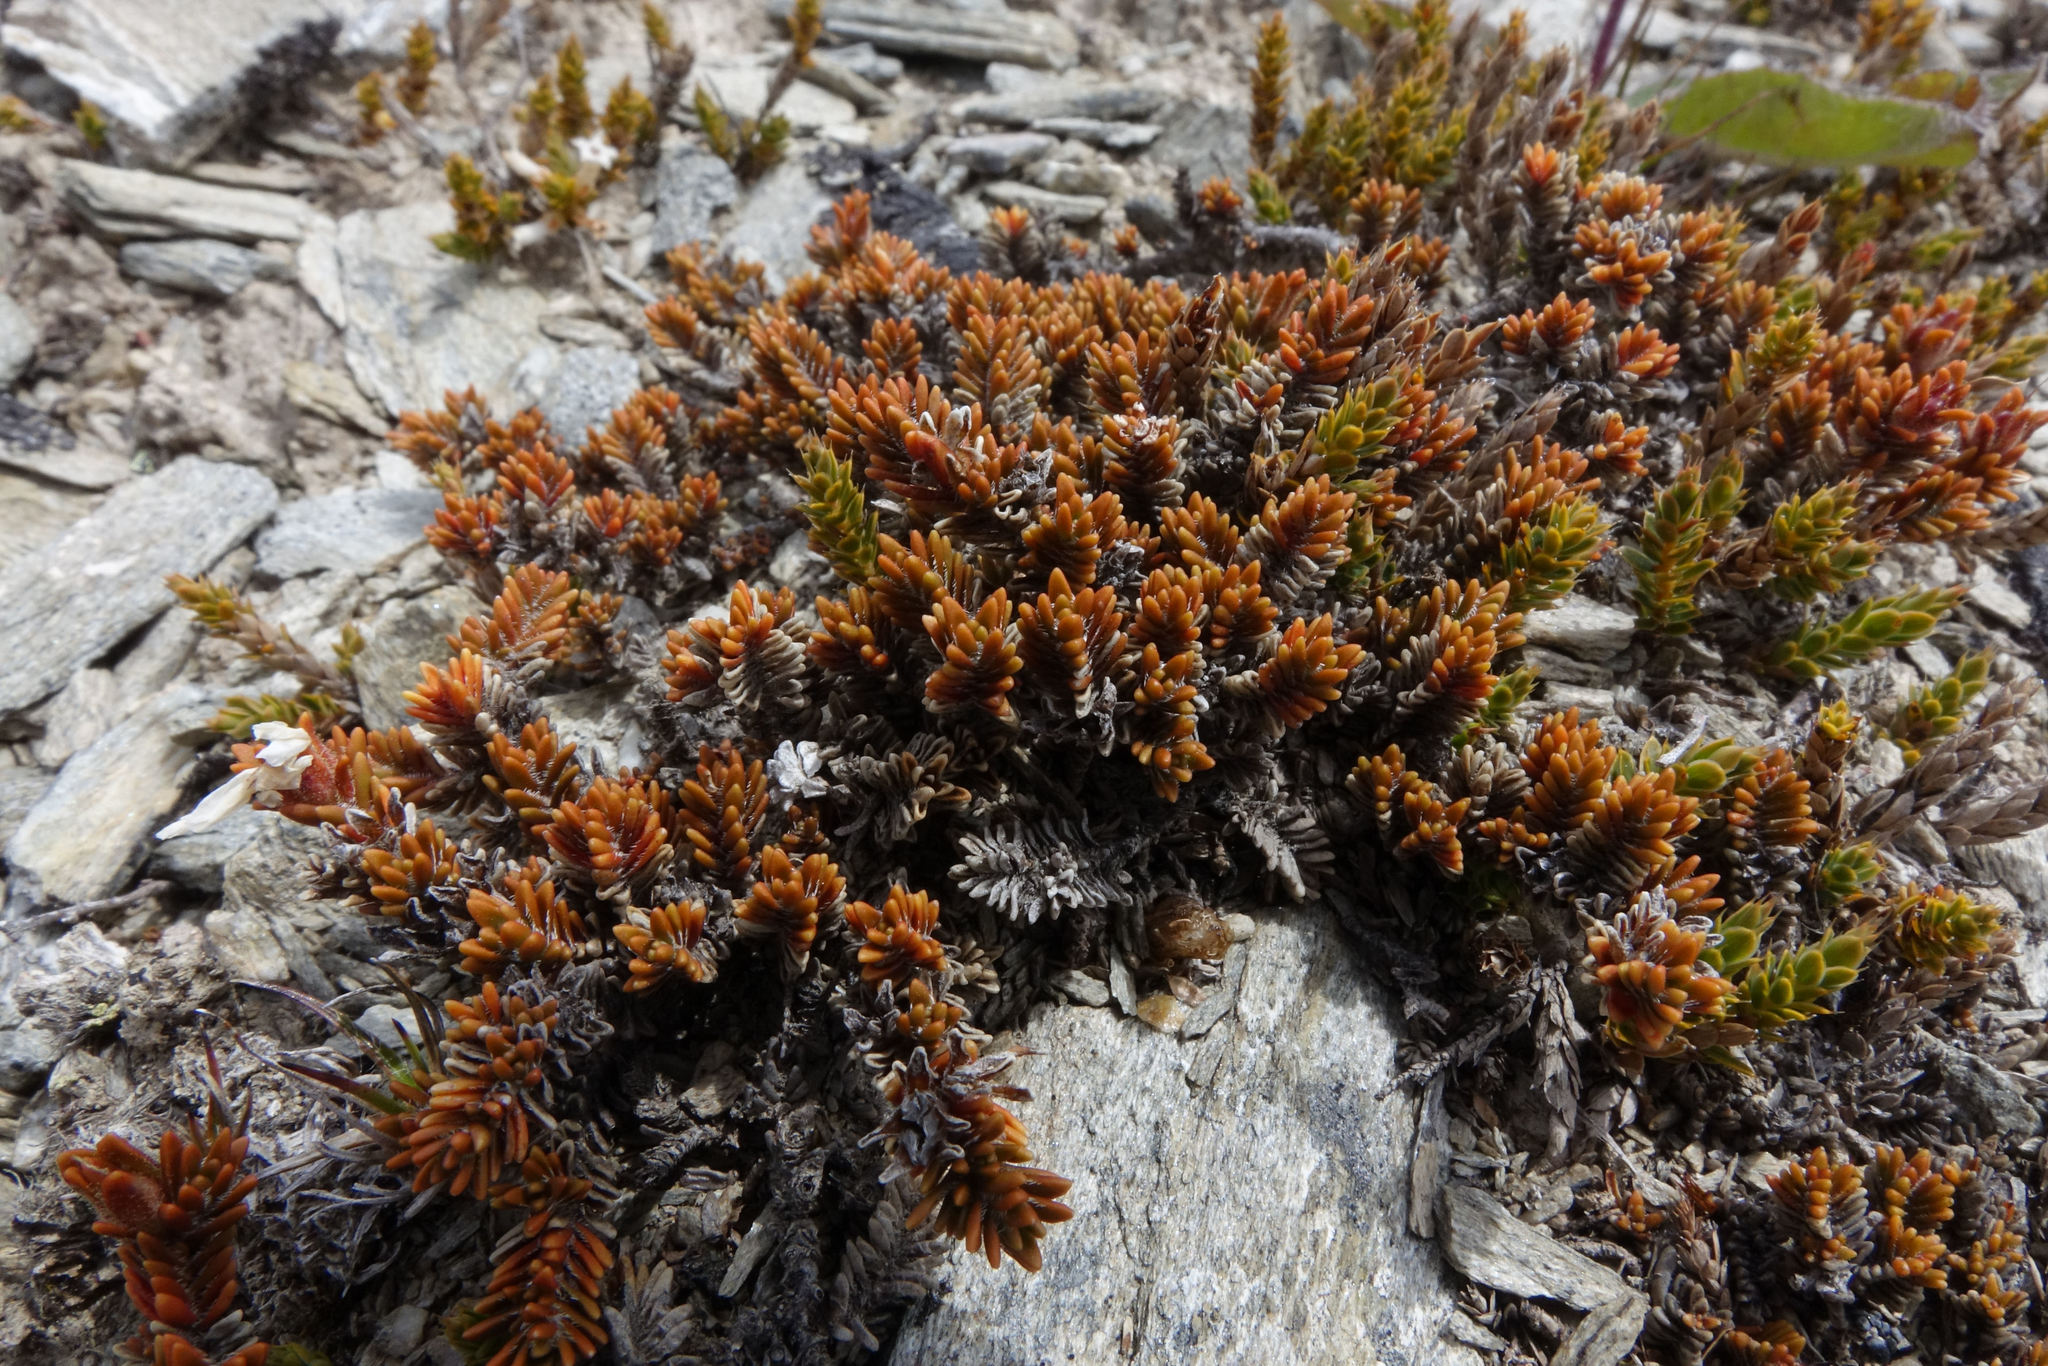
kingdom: Plantae
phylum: Tracheophyta
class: Magnoliopsida
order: Lamiales
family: Plantaginaceae
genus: Veronica
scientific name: Veronica densifolia
